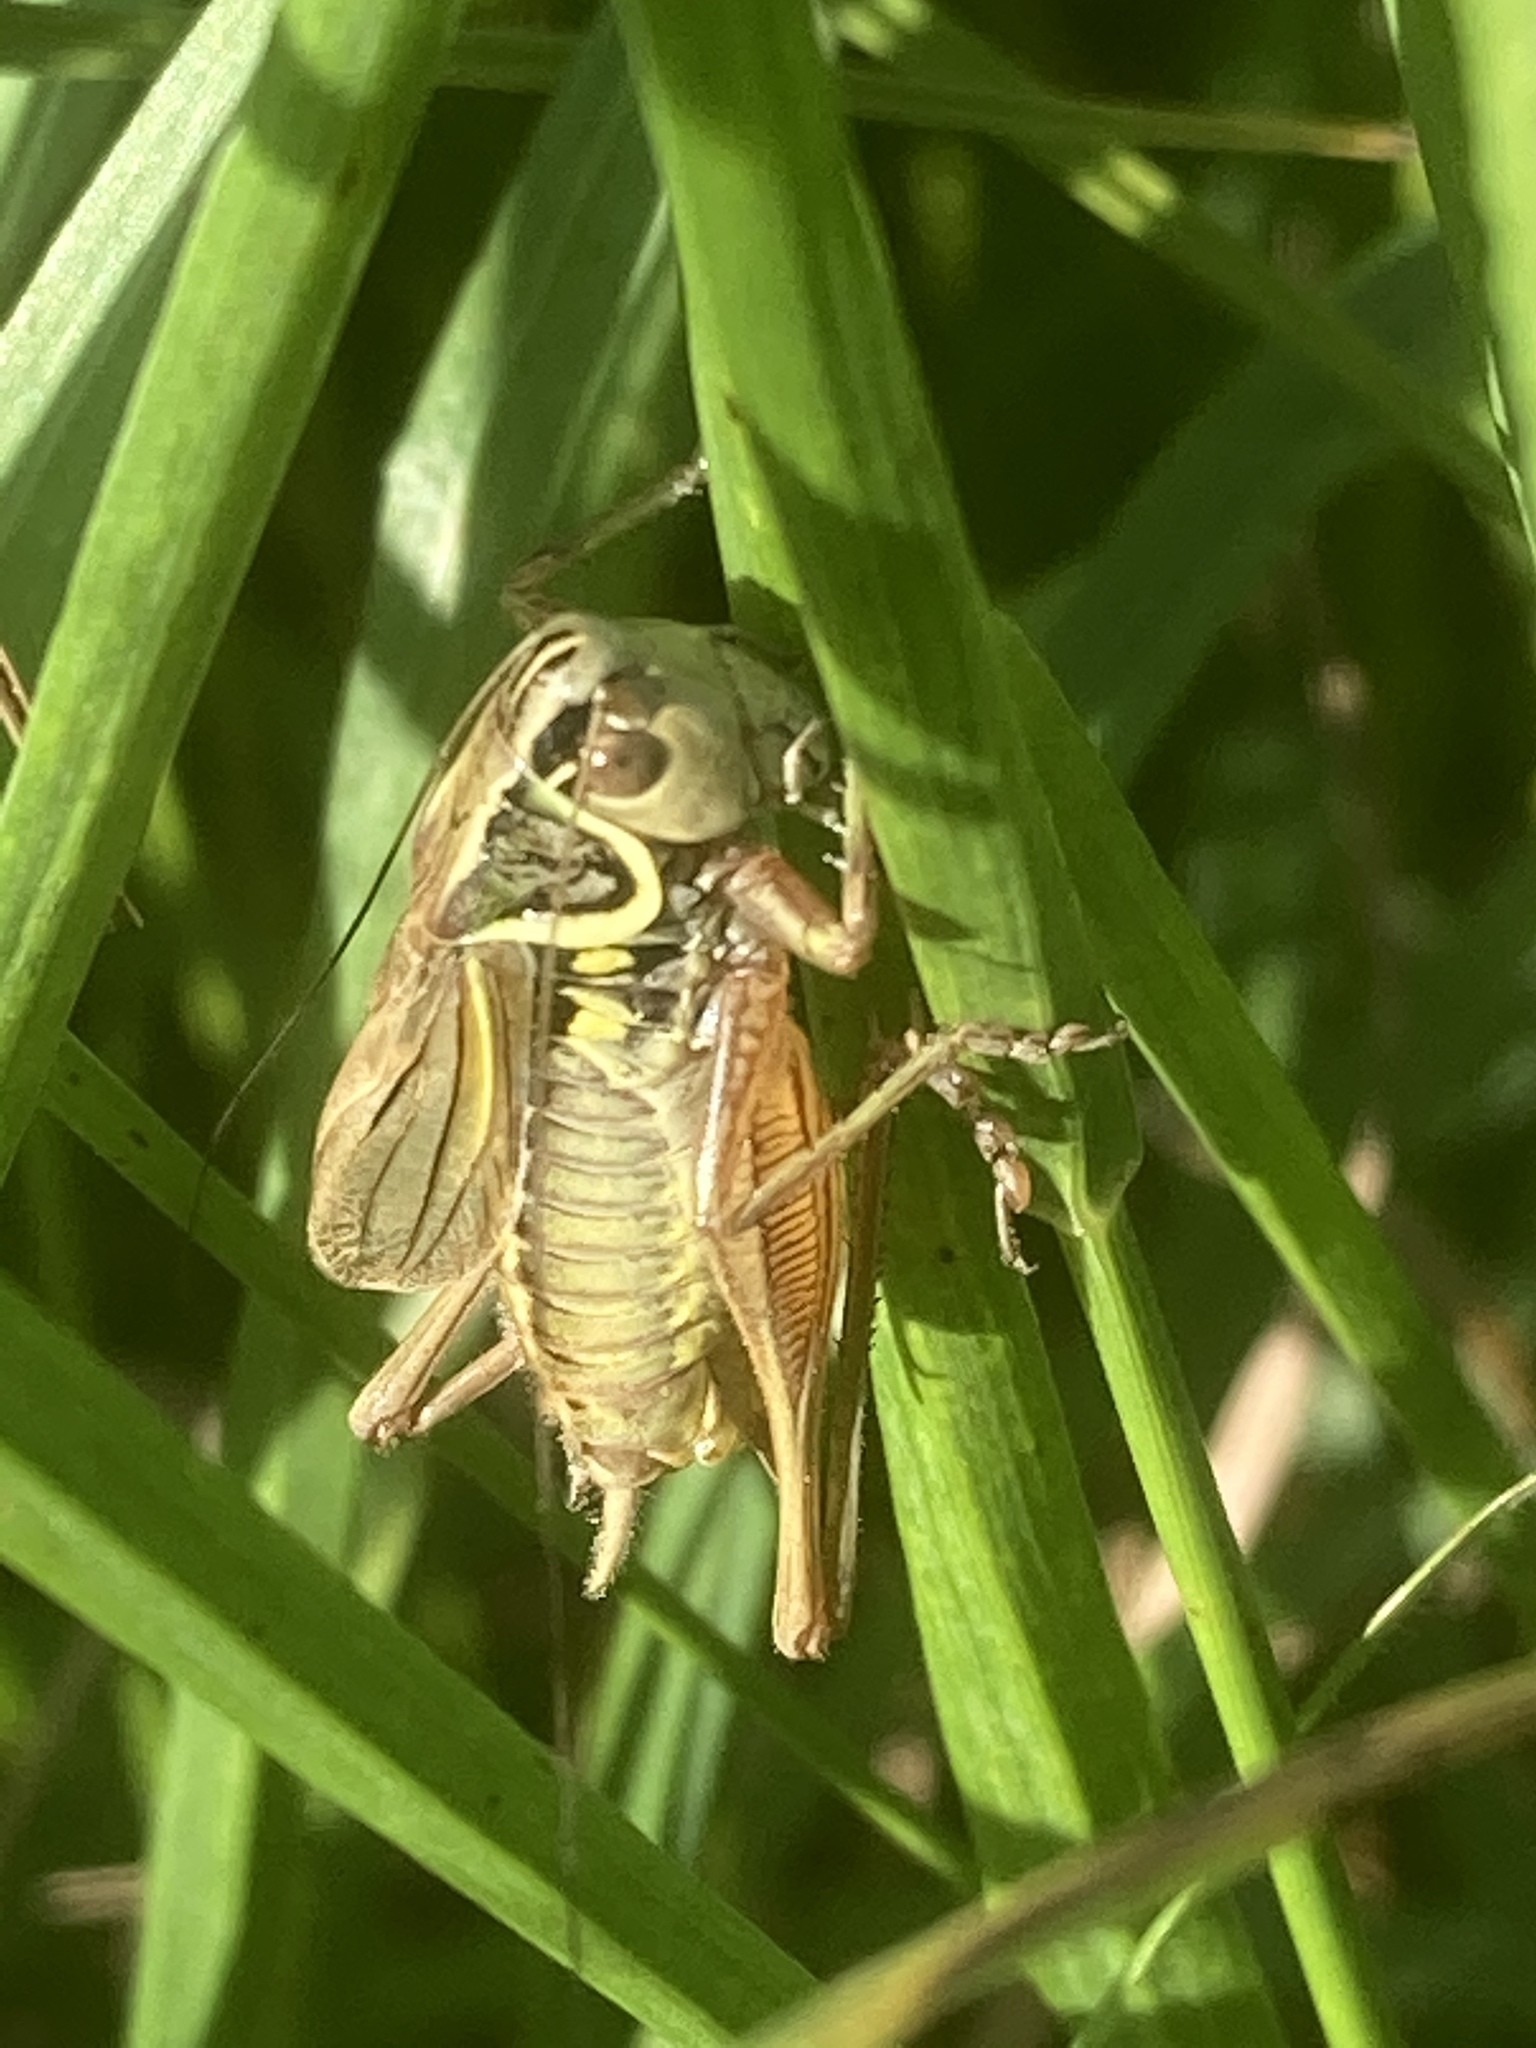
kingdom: Animalia
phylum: Arthropoda
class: Insecta
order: Orthoptera
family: Tettigoniidae
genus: Roeseliana
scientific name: Roeseliana roeselii
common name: Roesel's bush cricket
